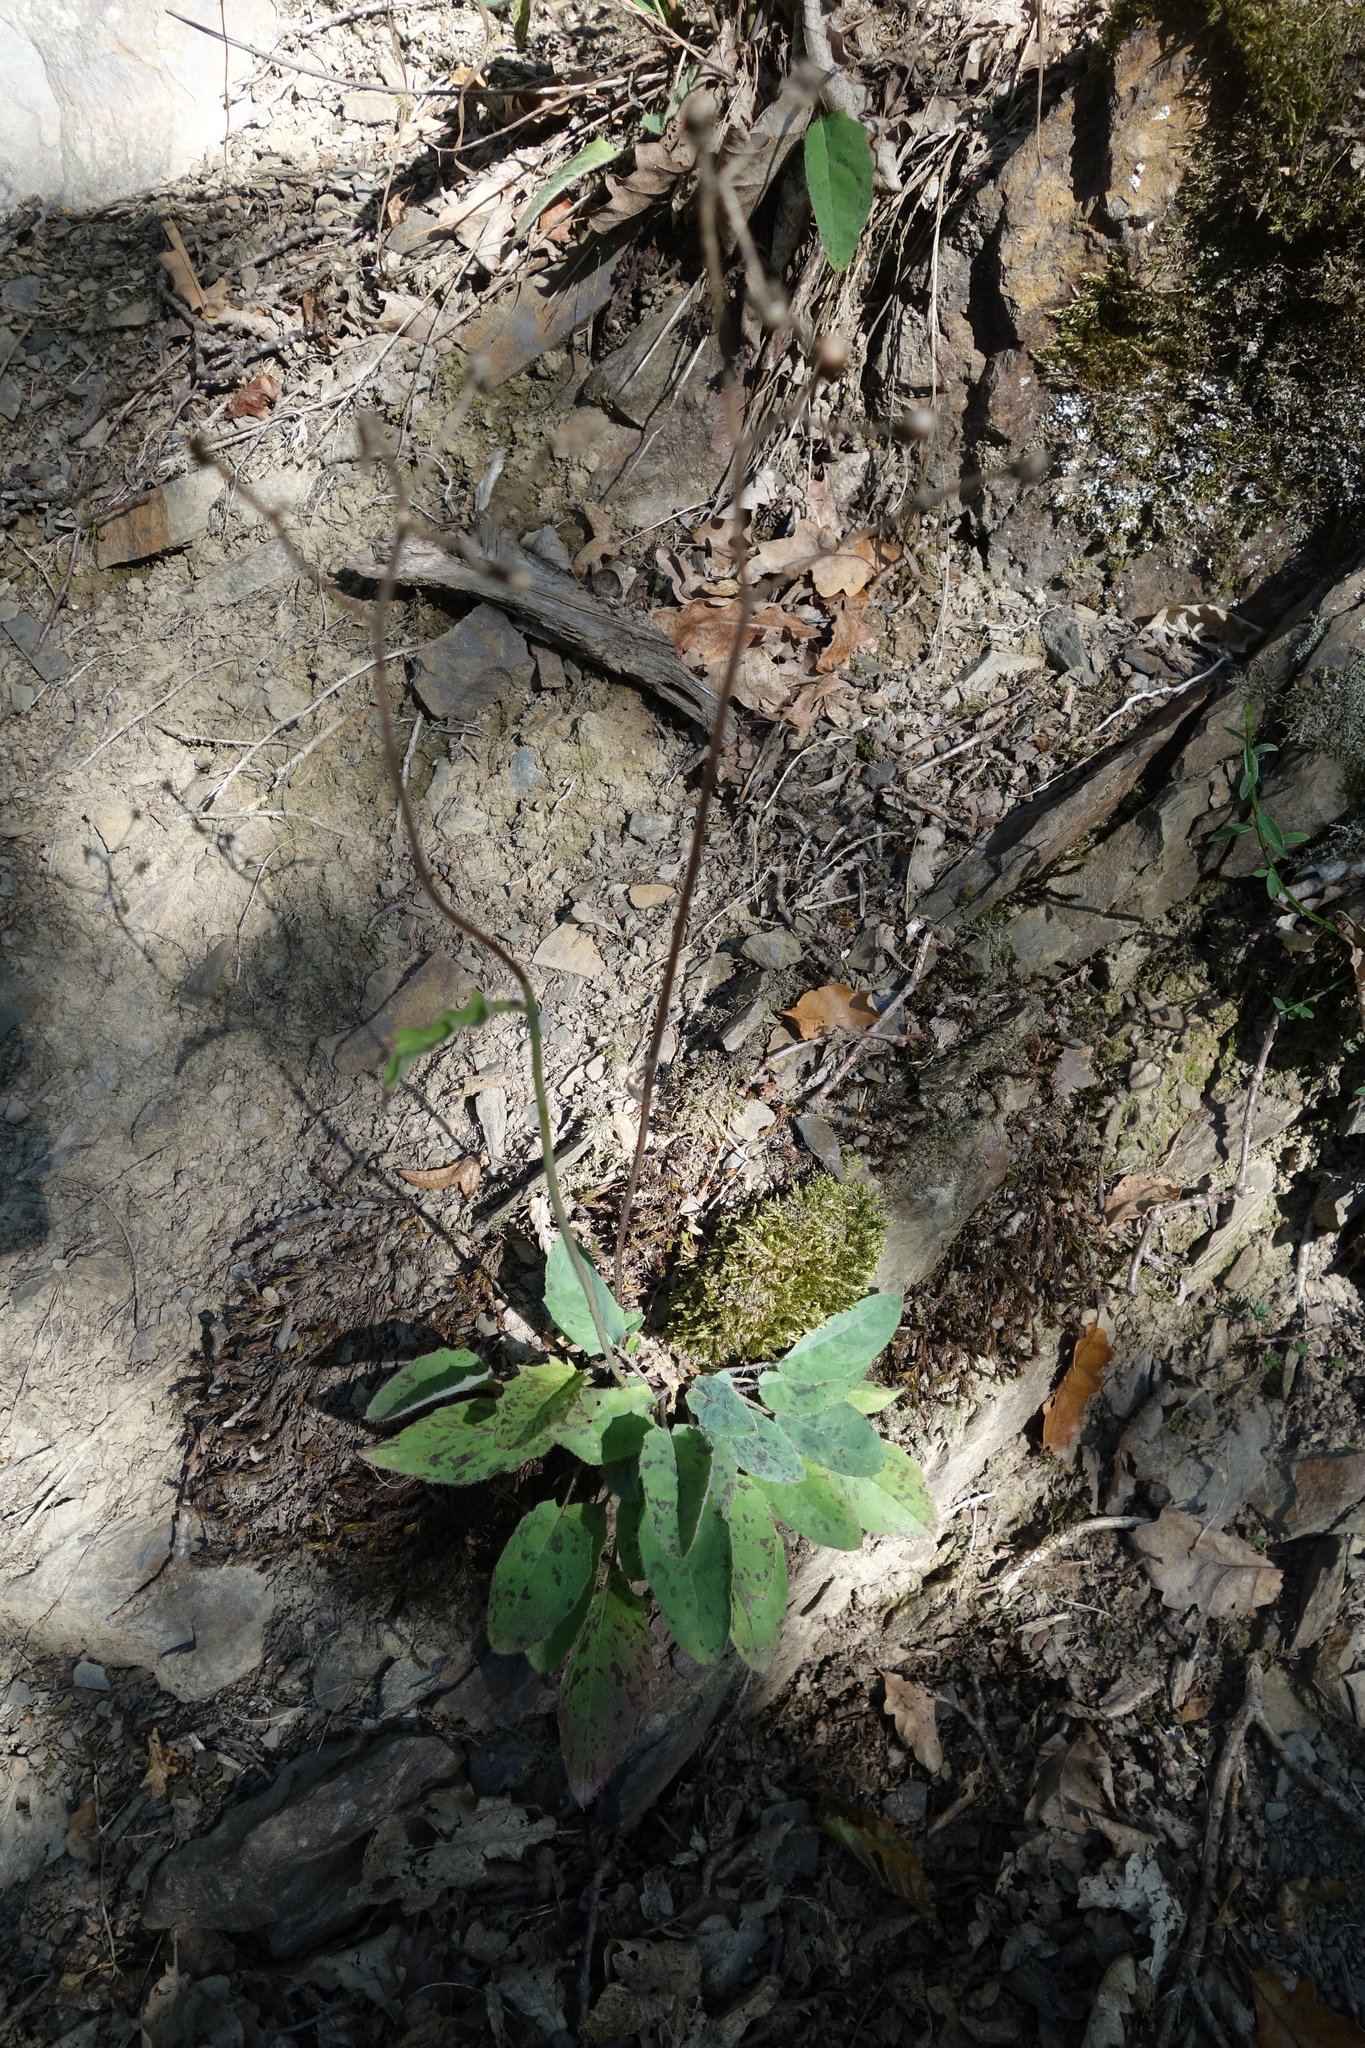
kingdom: Plantae
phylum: Tracheophyta
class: Magnoliopsida
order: Asterales
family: Asteraceae
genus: Hieracium
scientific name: Hieracium maculatum
